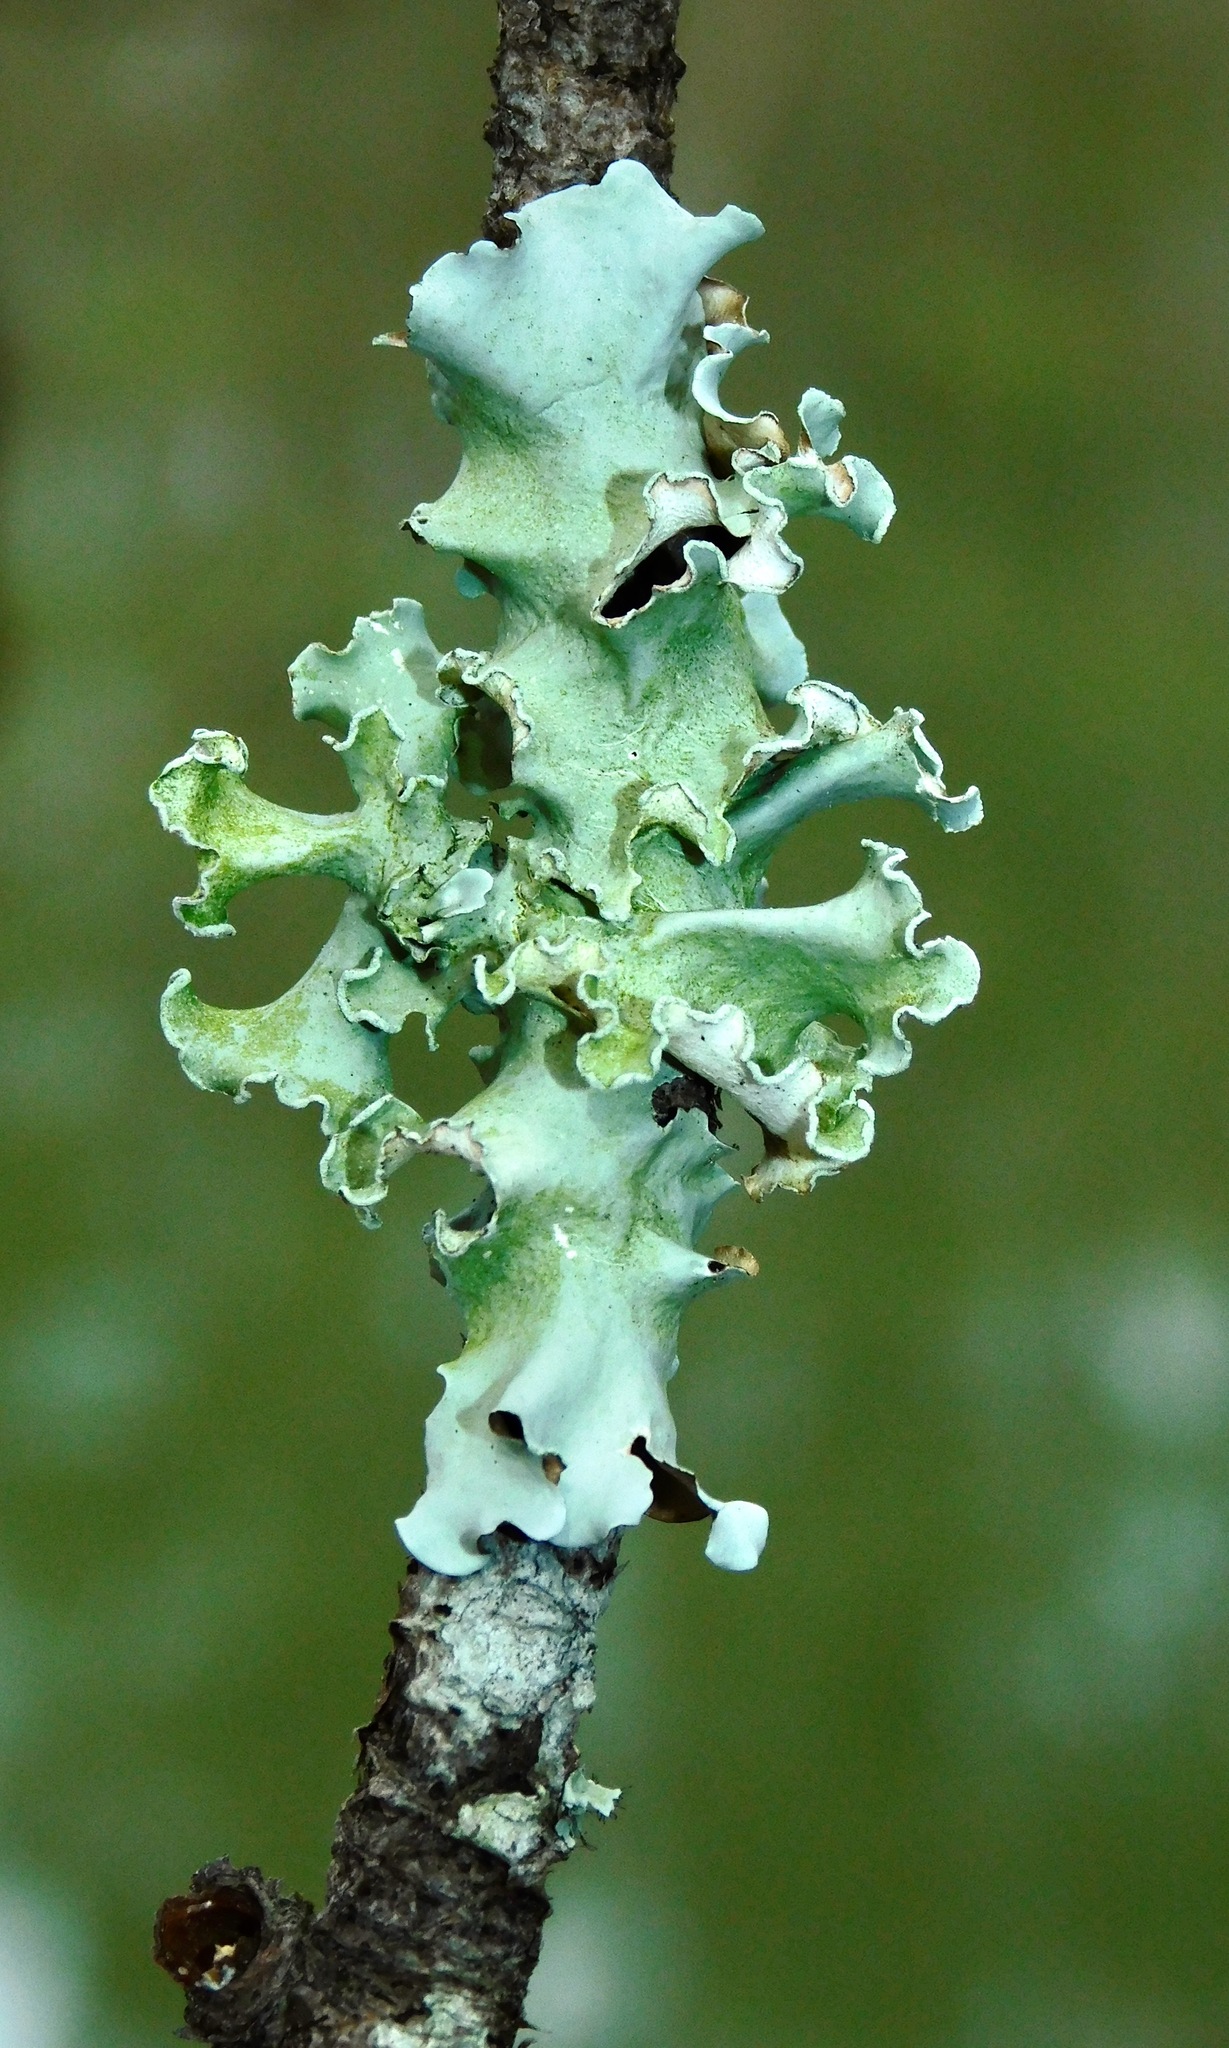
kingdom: Fungi
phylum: Ascomycota
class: Lecanoromycetes
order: Lecanorales
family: Parmeliaceae
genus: Parmotrema
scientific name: Parmotrema austrosinense
